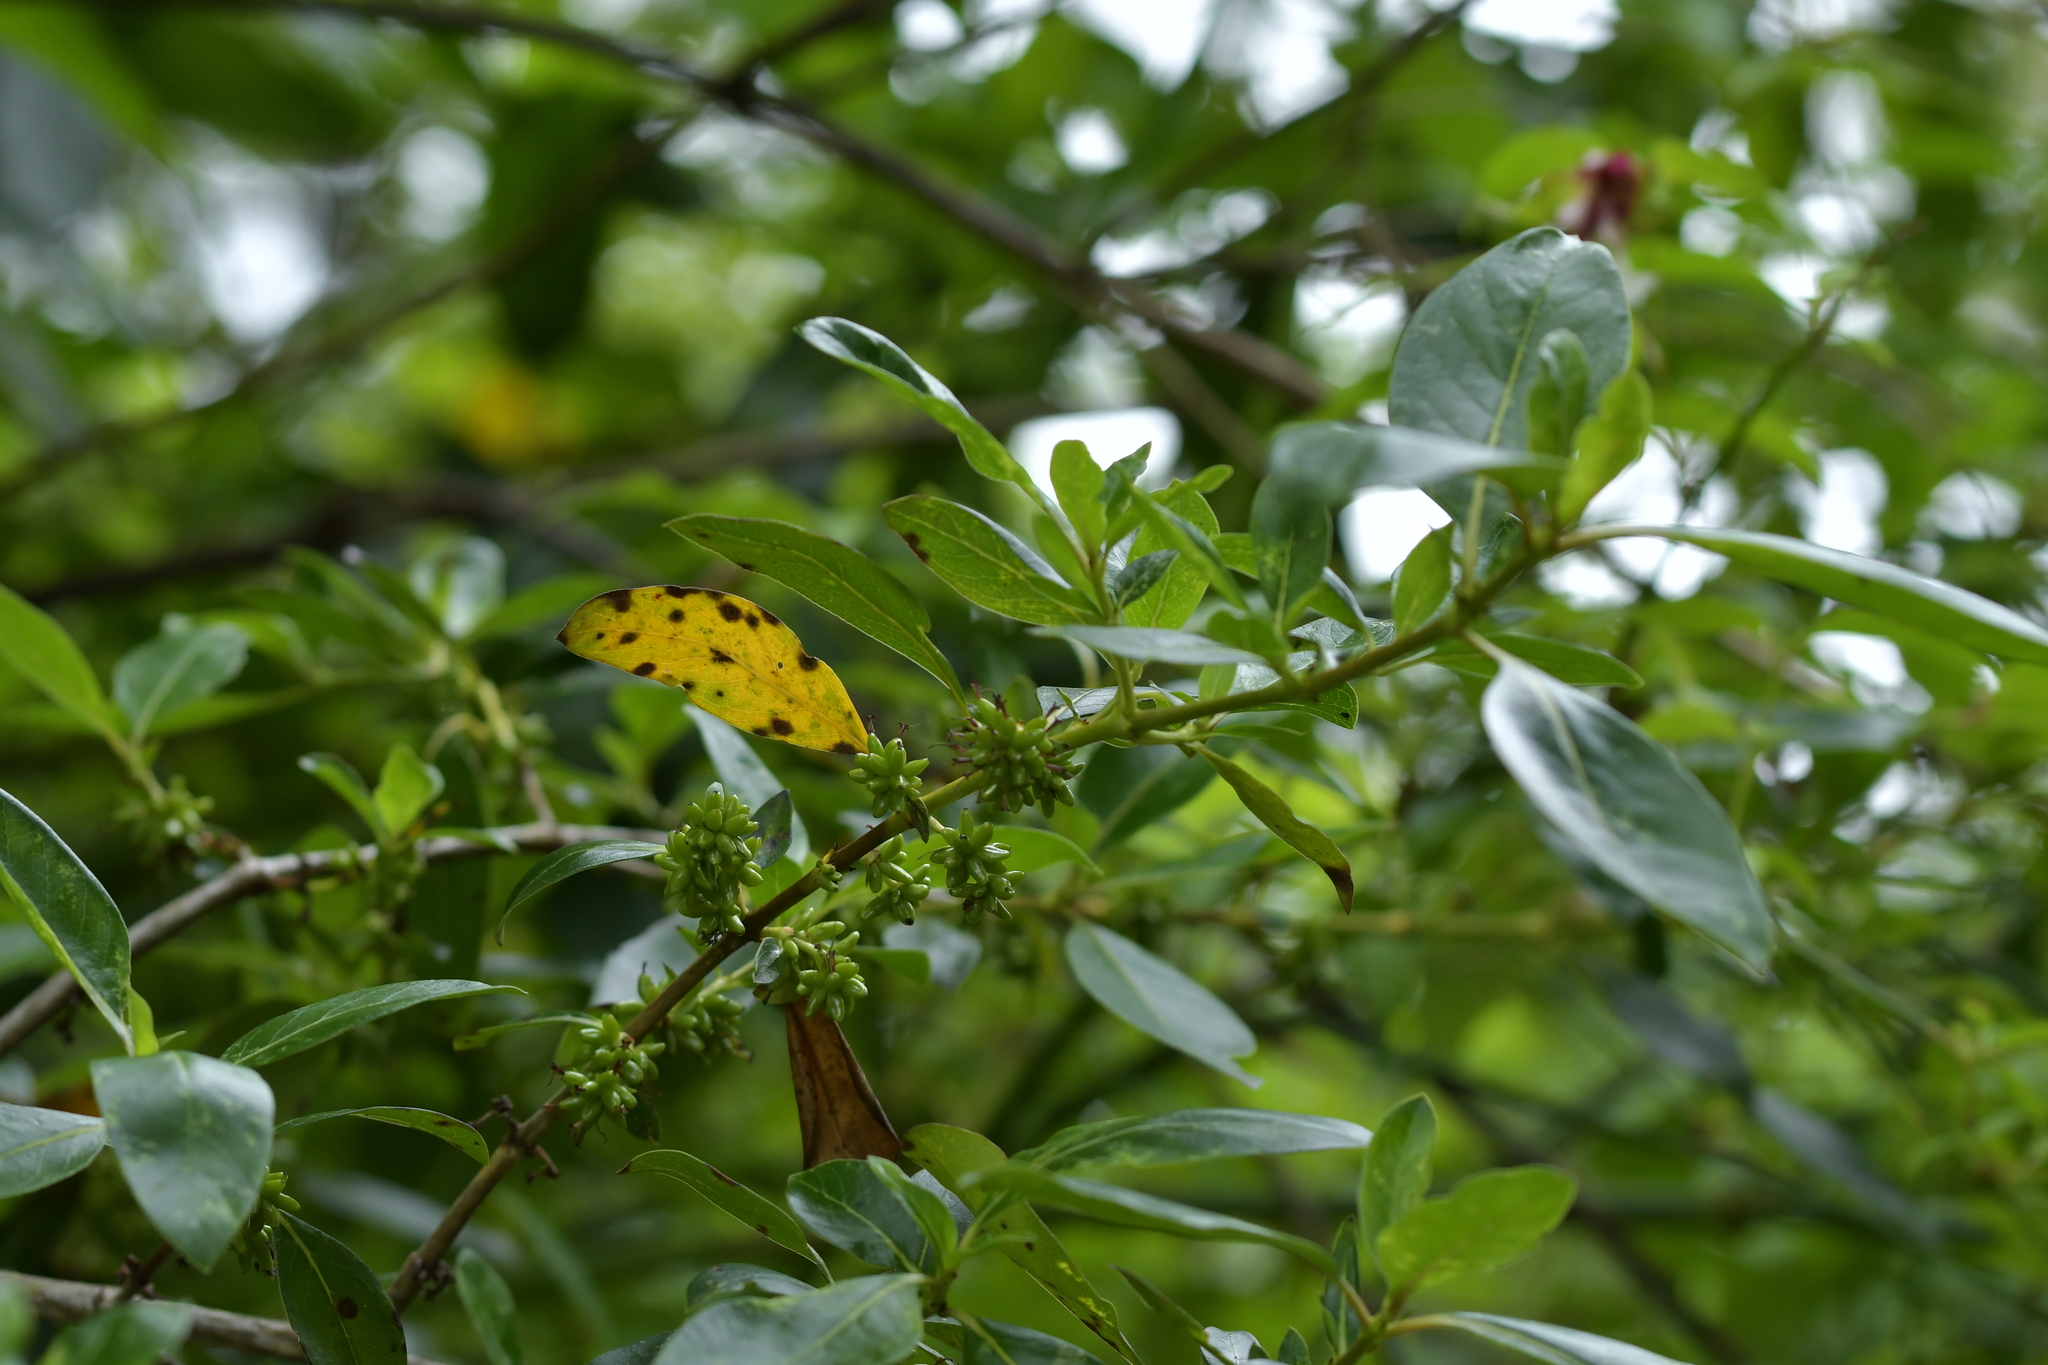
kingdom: Plantae
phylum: Tracheophyta
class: Magnoliopsida
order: Gentianales
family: Rubiaceae
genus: Coprosma
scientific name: Coprosma robusta
